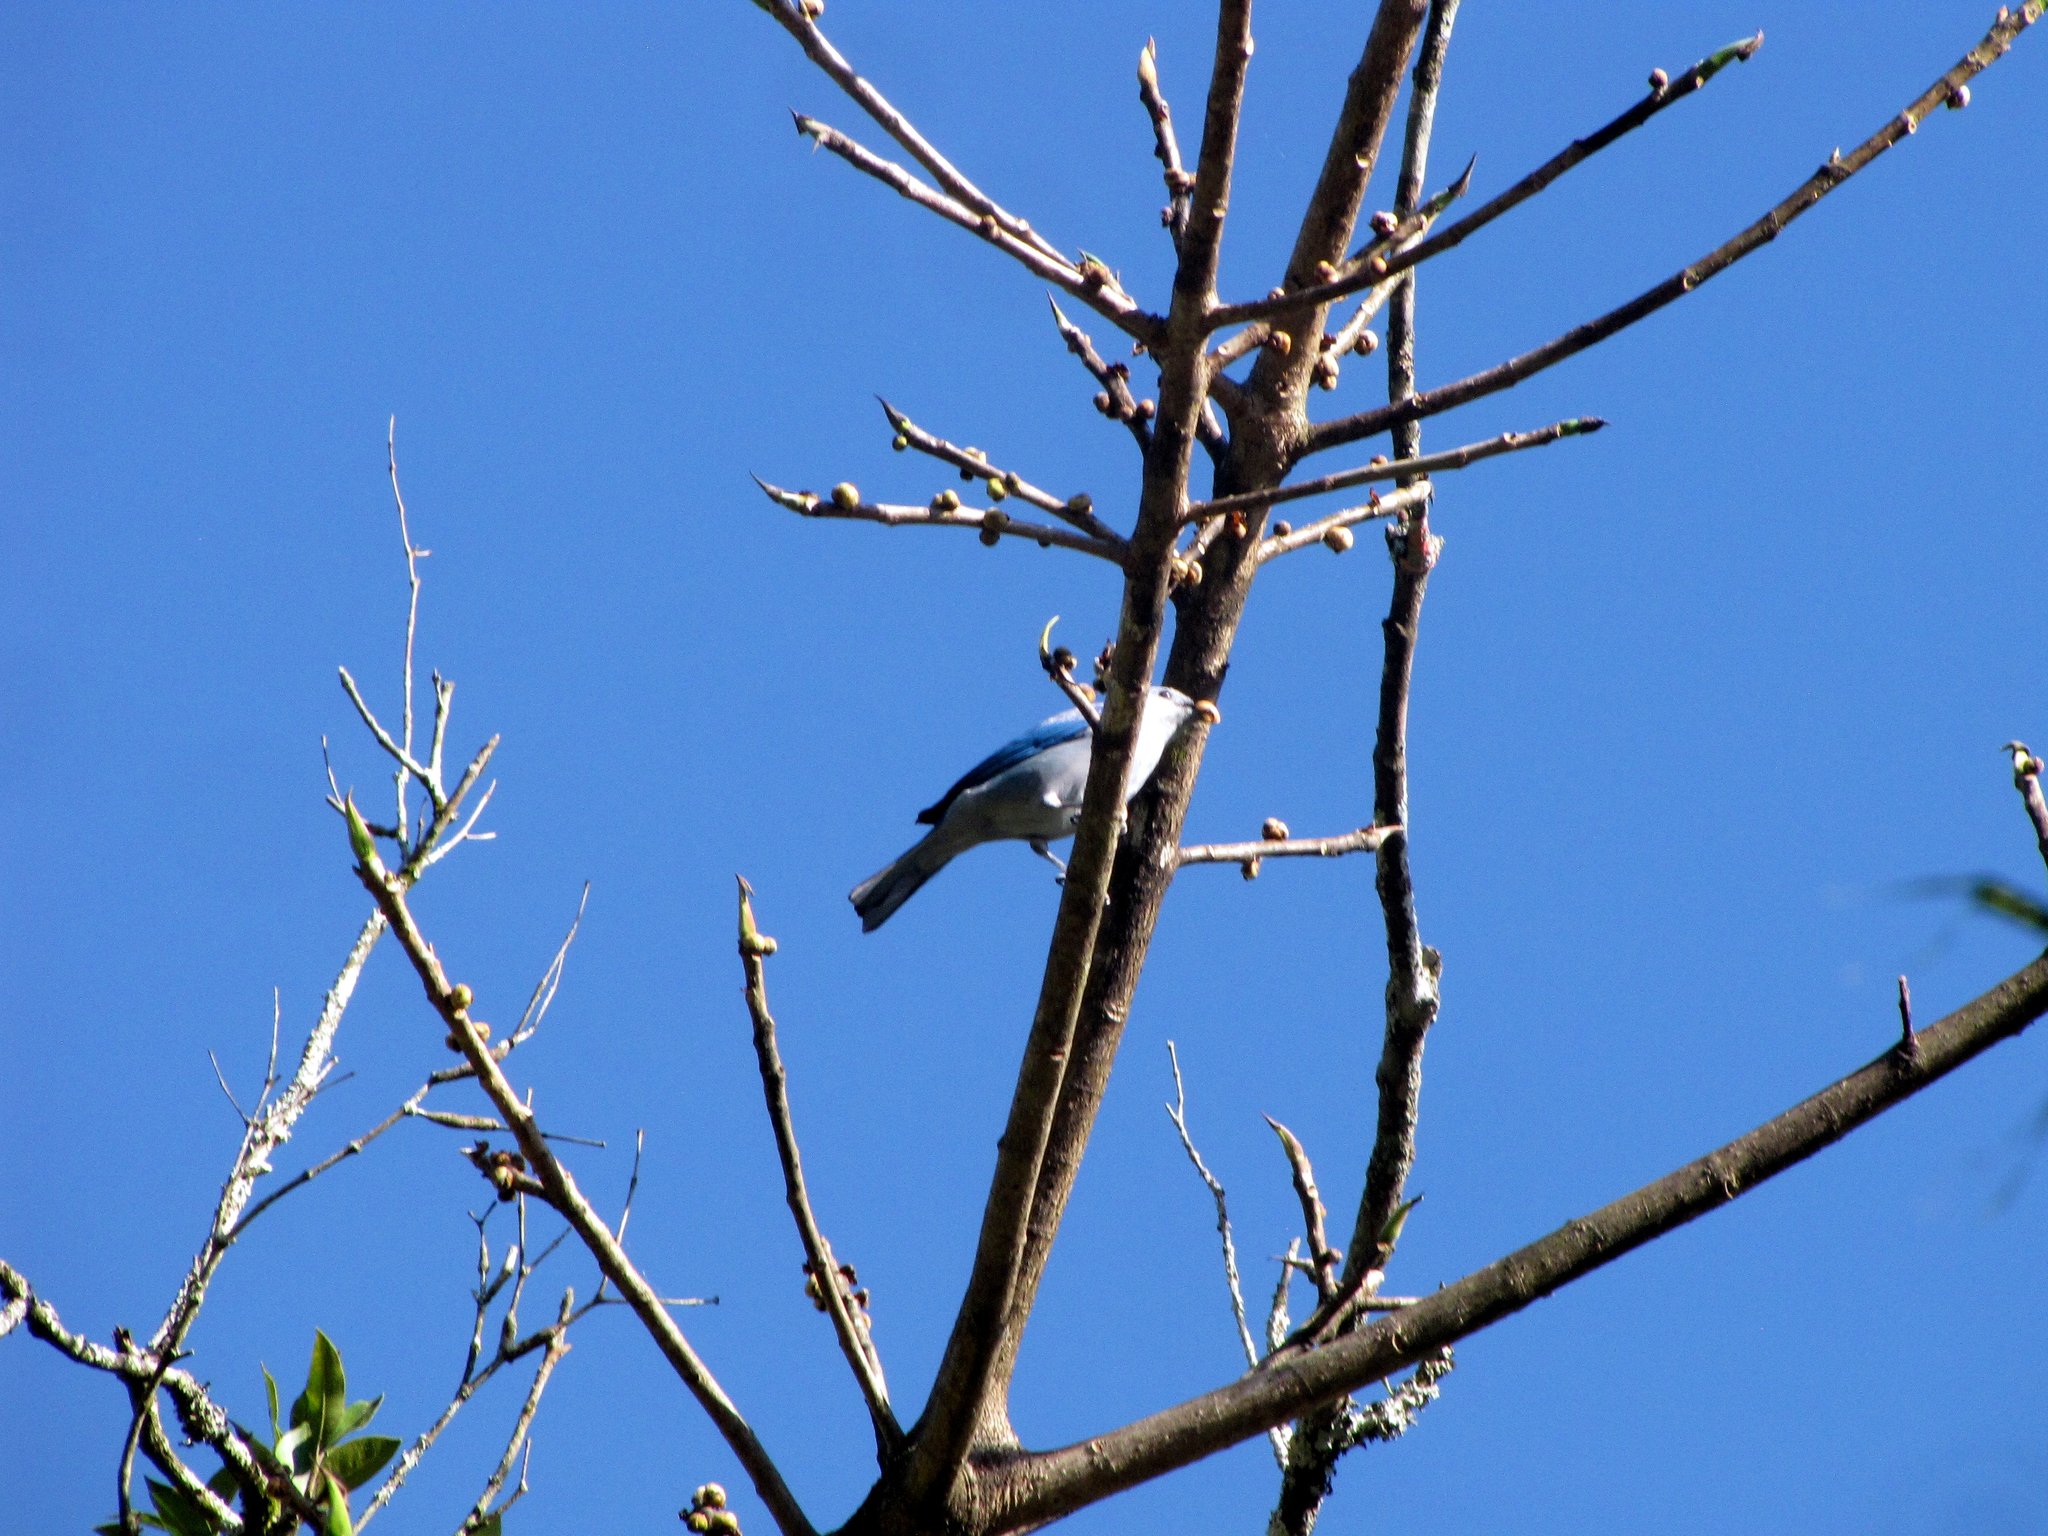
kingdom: Animalia
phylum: Chordata
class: Aves
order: Passeriformes
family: Thraupidae
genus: Thraupis
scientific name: Thraupis episcopus
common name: Blue-grey tanager
